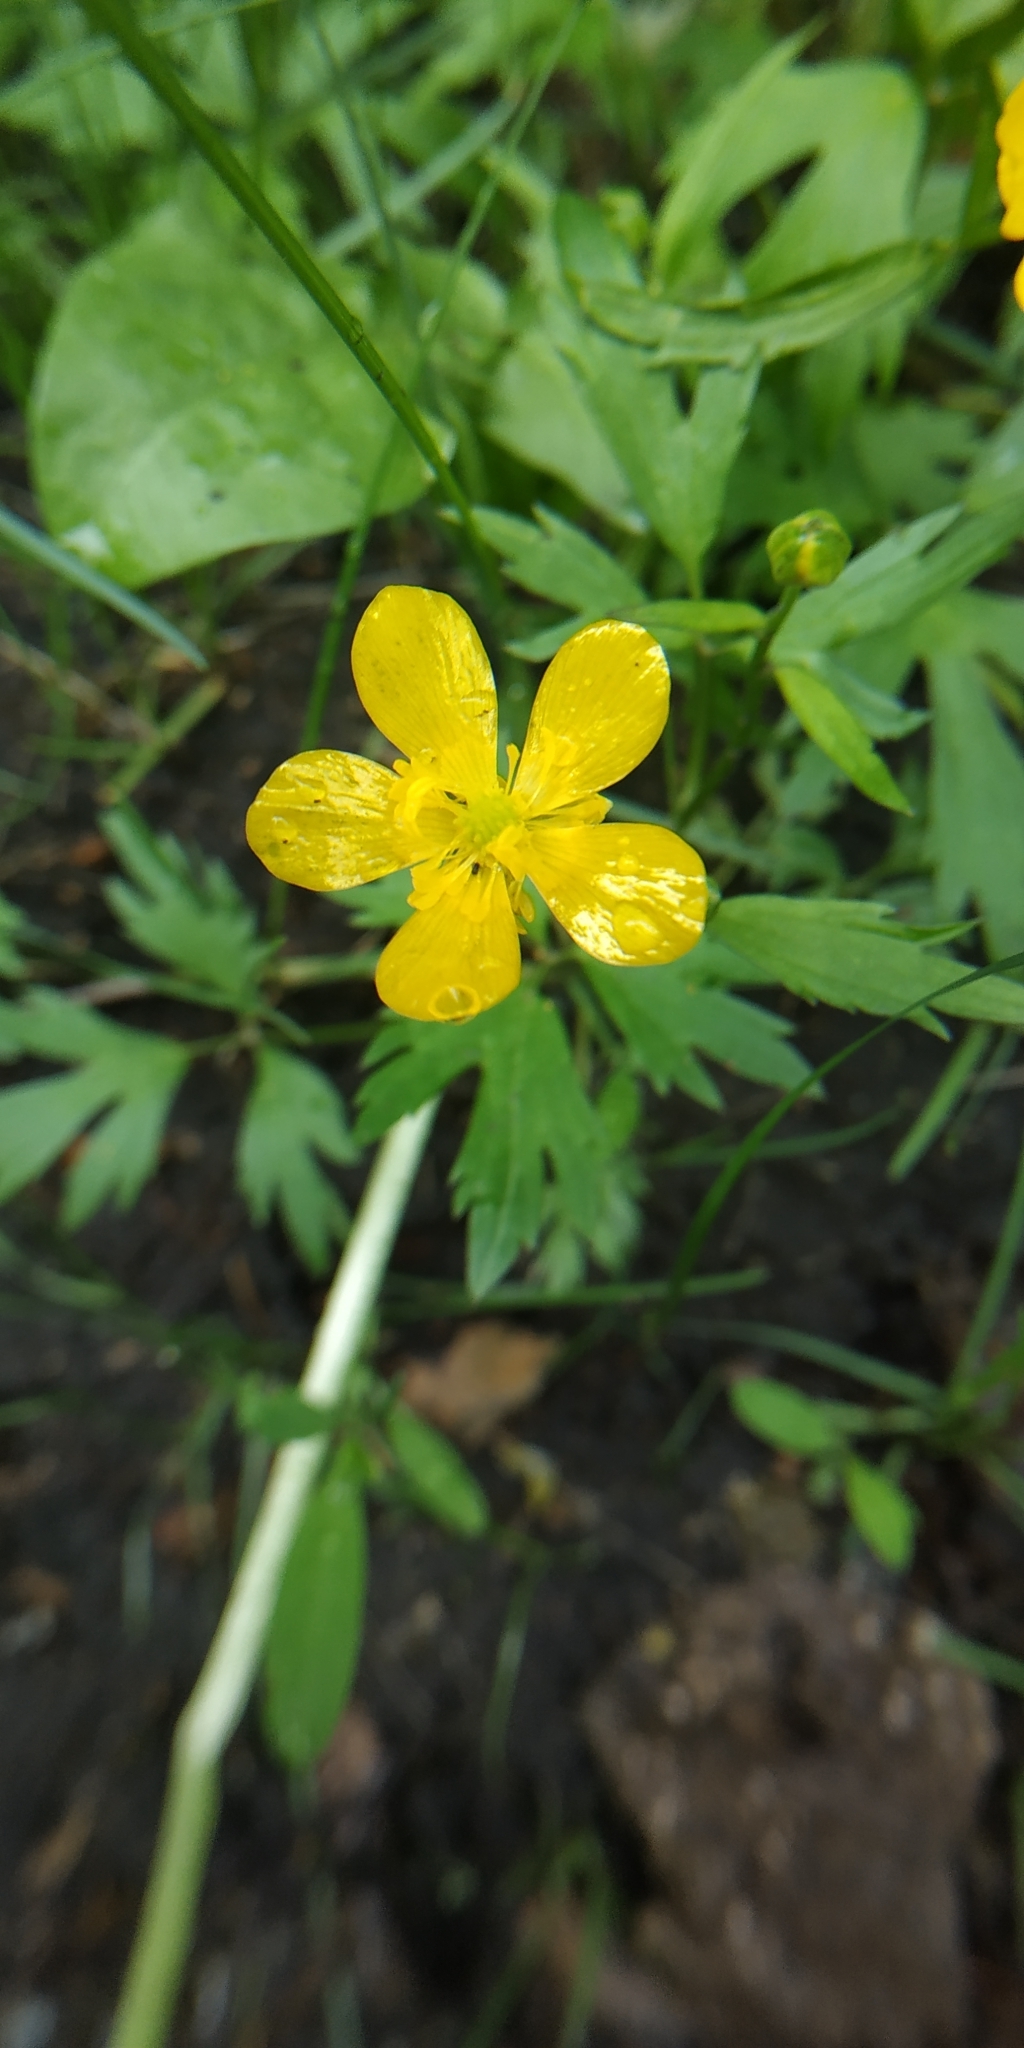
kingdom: Plantae
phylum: Tracheophyta
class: Magnoliopsida
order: Ranunculales
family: Ranunculaceae
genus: Ranunculus
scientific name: Ranunculus repens
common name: Creeping buttercup
